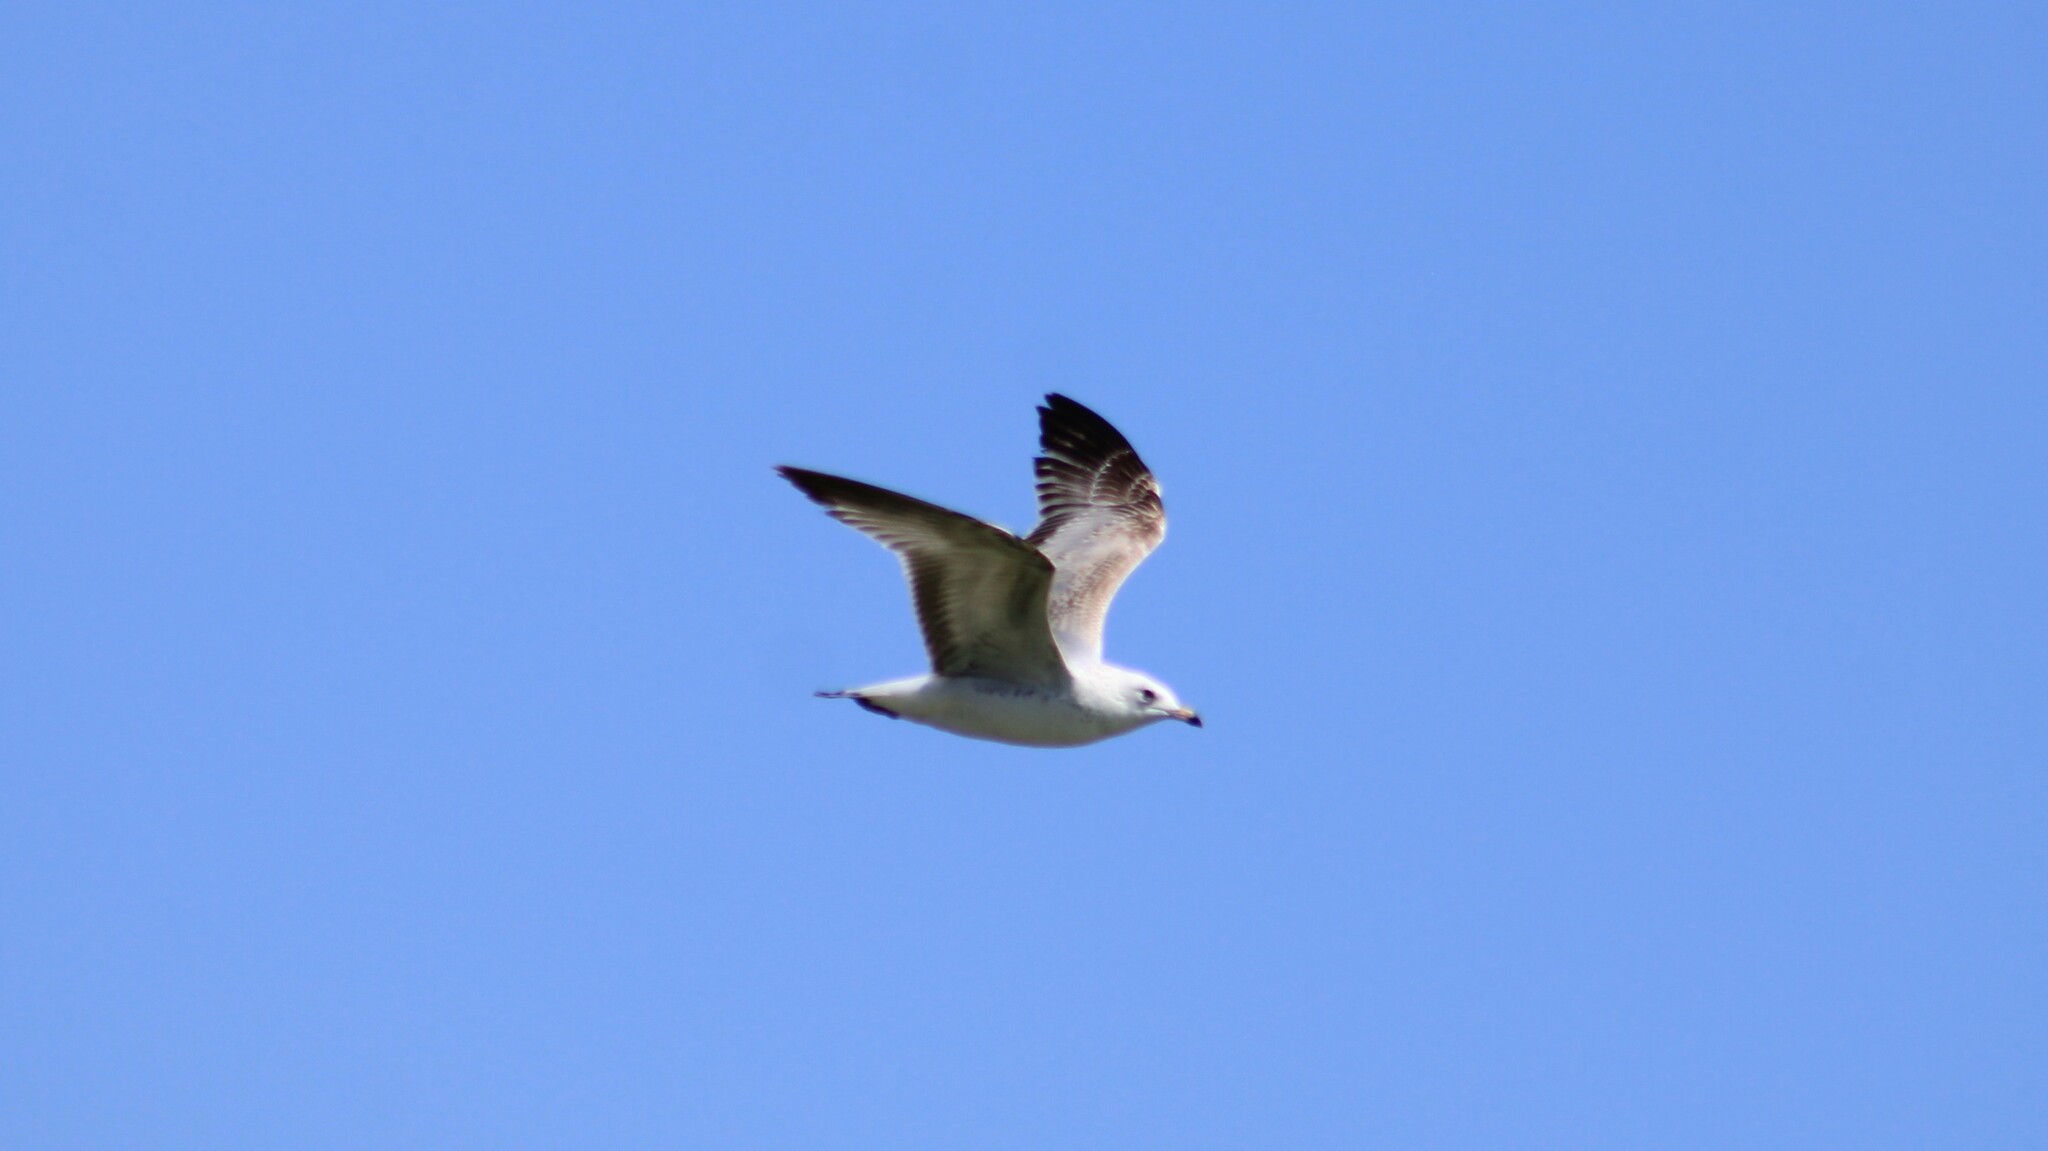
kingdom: Animalia
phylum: Chordata
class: Aves
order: Charadriiformes
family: Laridae
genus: Larus
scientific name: Larus delawarensis
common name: Ring-billed gull
